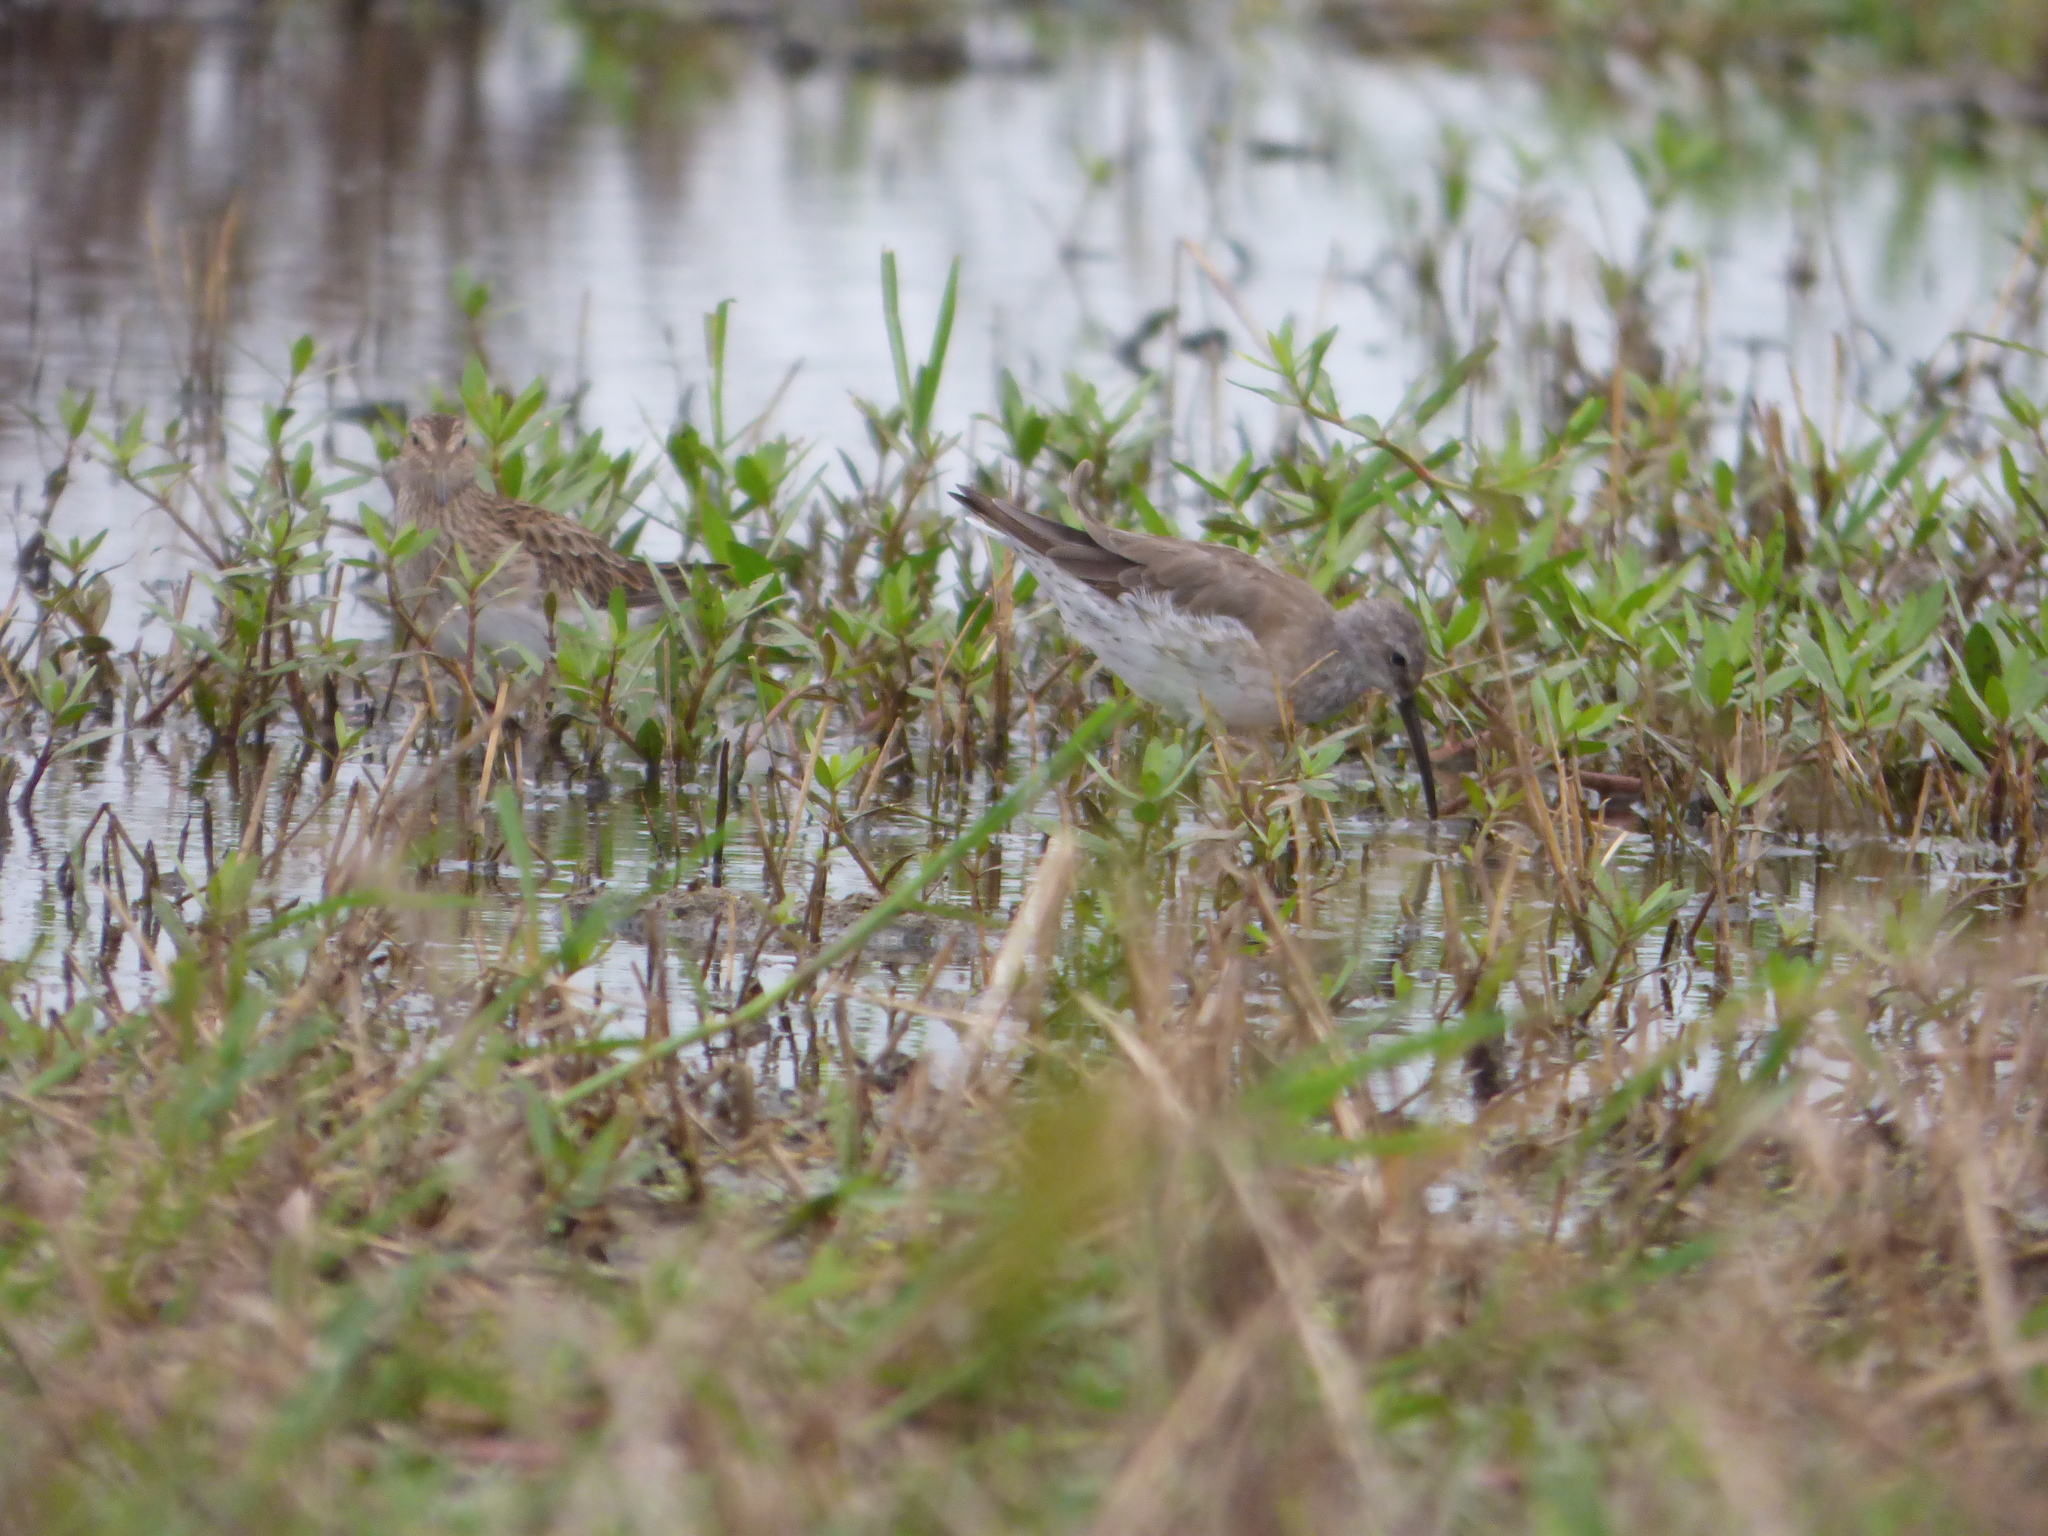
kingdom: Animalia
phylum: Chordata
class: Aves
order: Charadriiformes
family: Scolopacidae
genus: Calidris
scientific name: Calidris himantopus
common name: Stilt sandpiper
